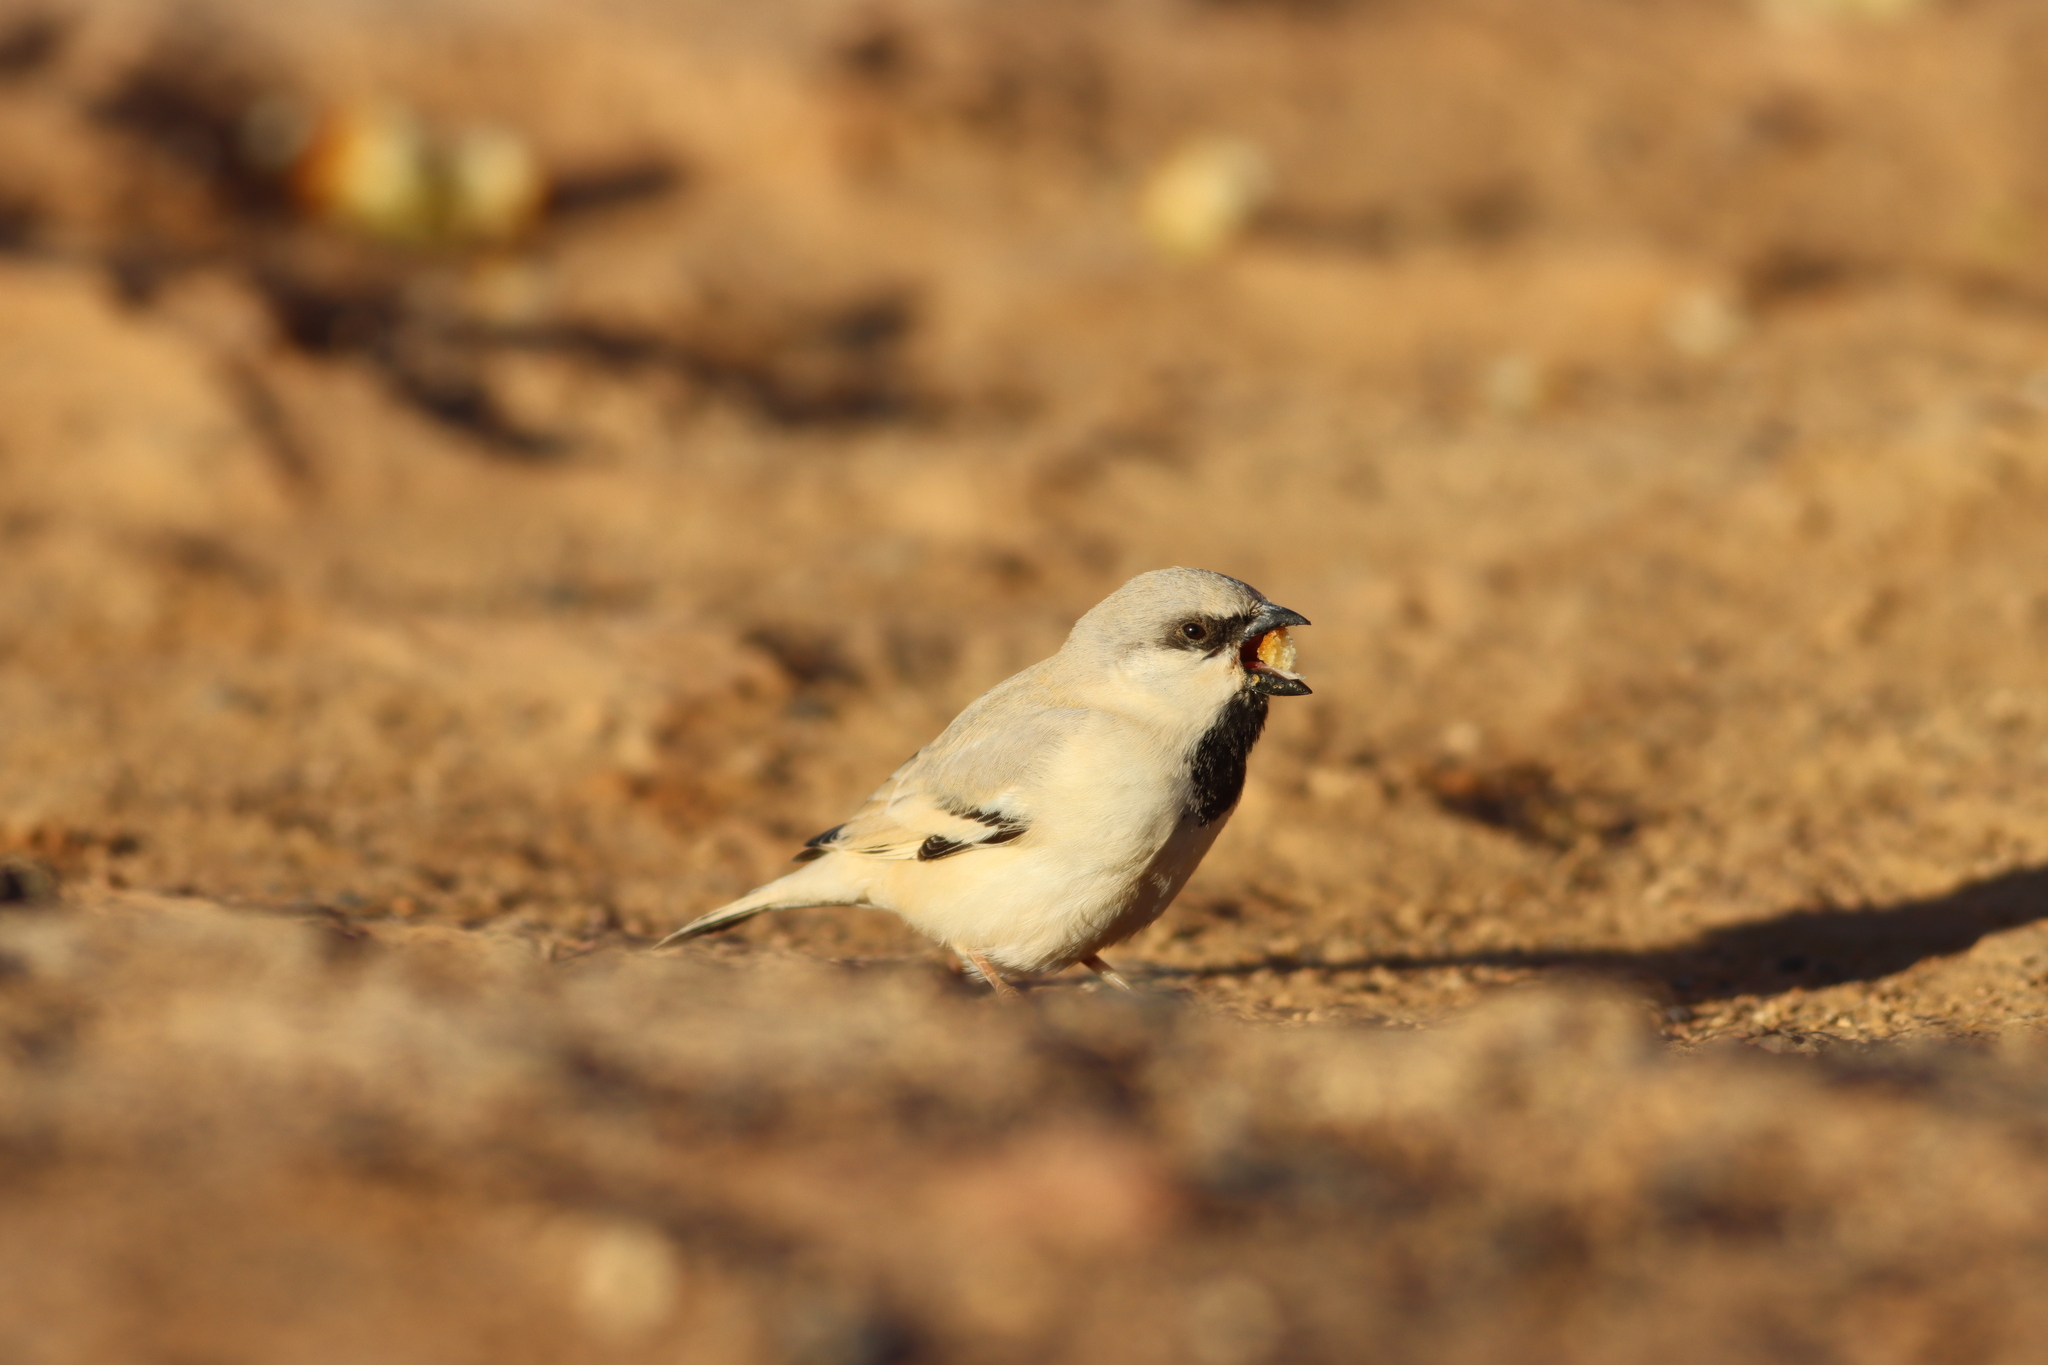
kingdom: Animalia
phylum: Chordata
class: Aves
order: Passeriformes
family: Passeridae
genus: Passer
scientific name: Passer simplex
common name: Desert sparrow
